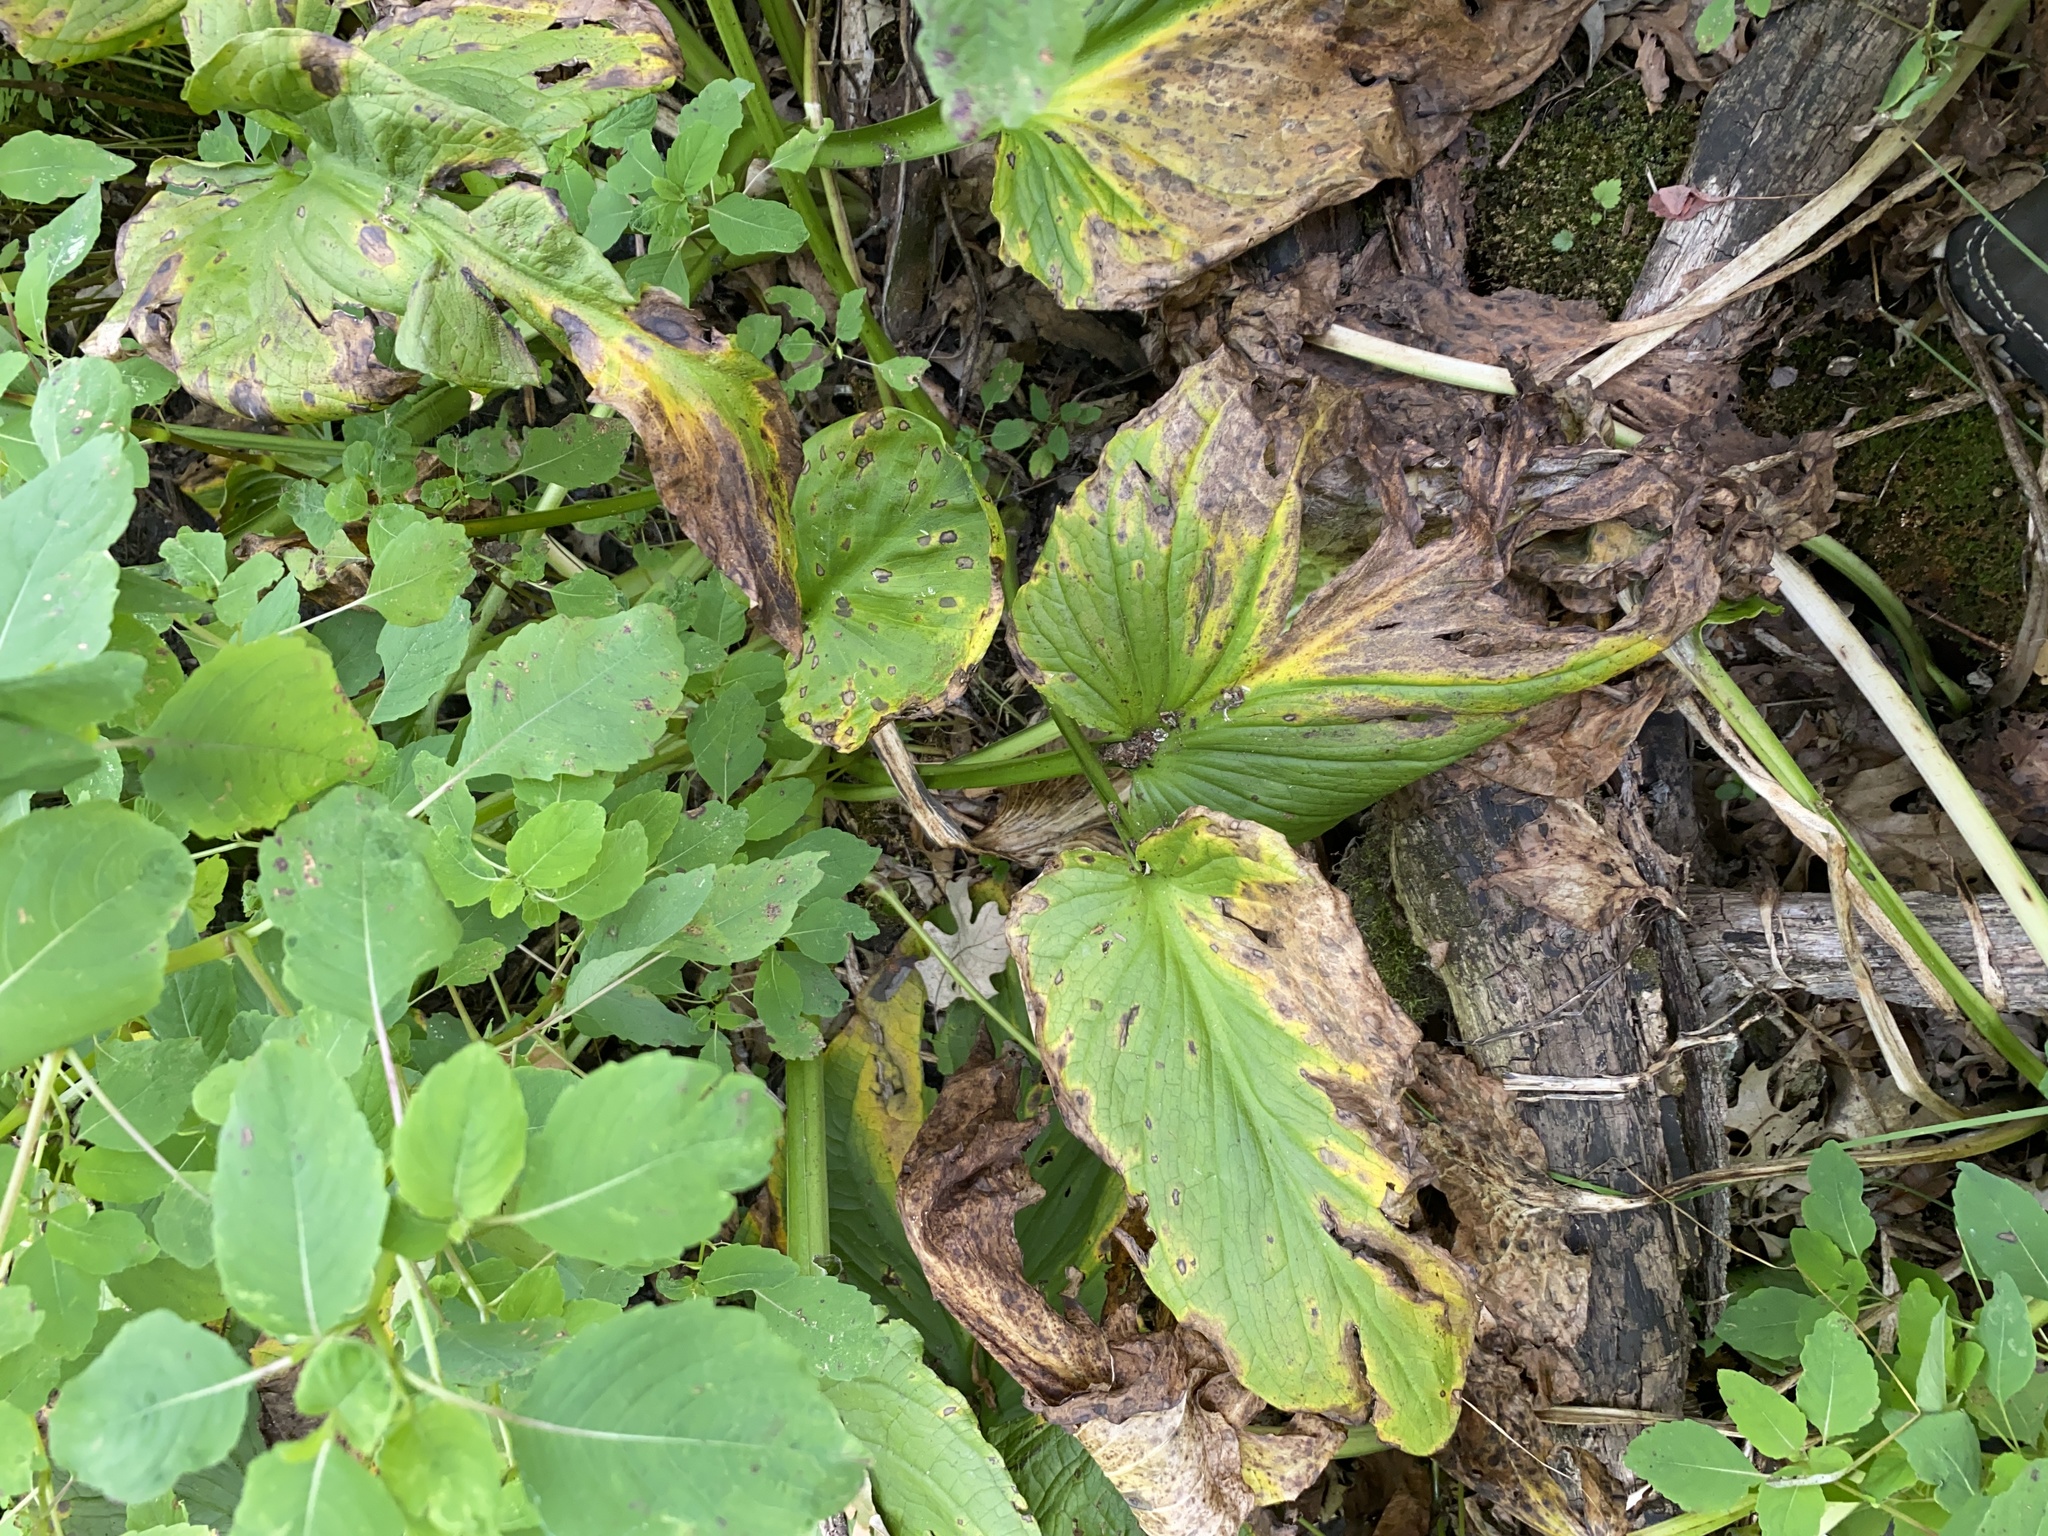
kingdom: Plantae
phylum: Tracheophyta
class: Liliopsida
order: Alismatales
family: Araceae
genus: Symplocarpus
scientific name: Symplocarpus foetidus
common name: Eastern skunk cabbage
